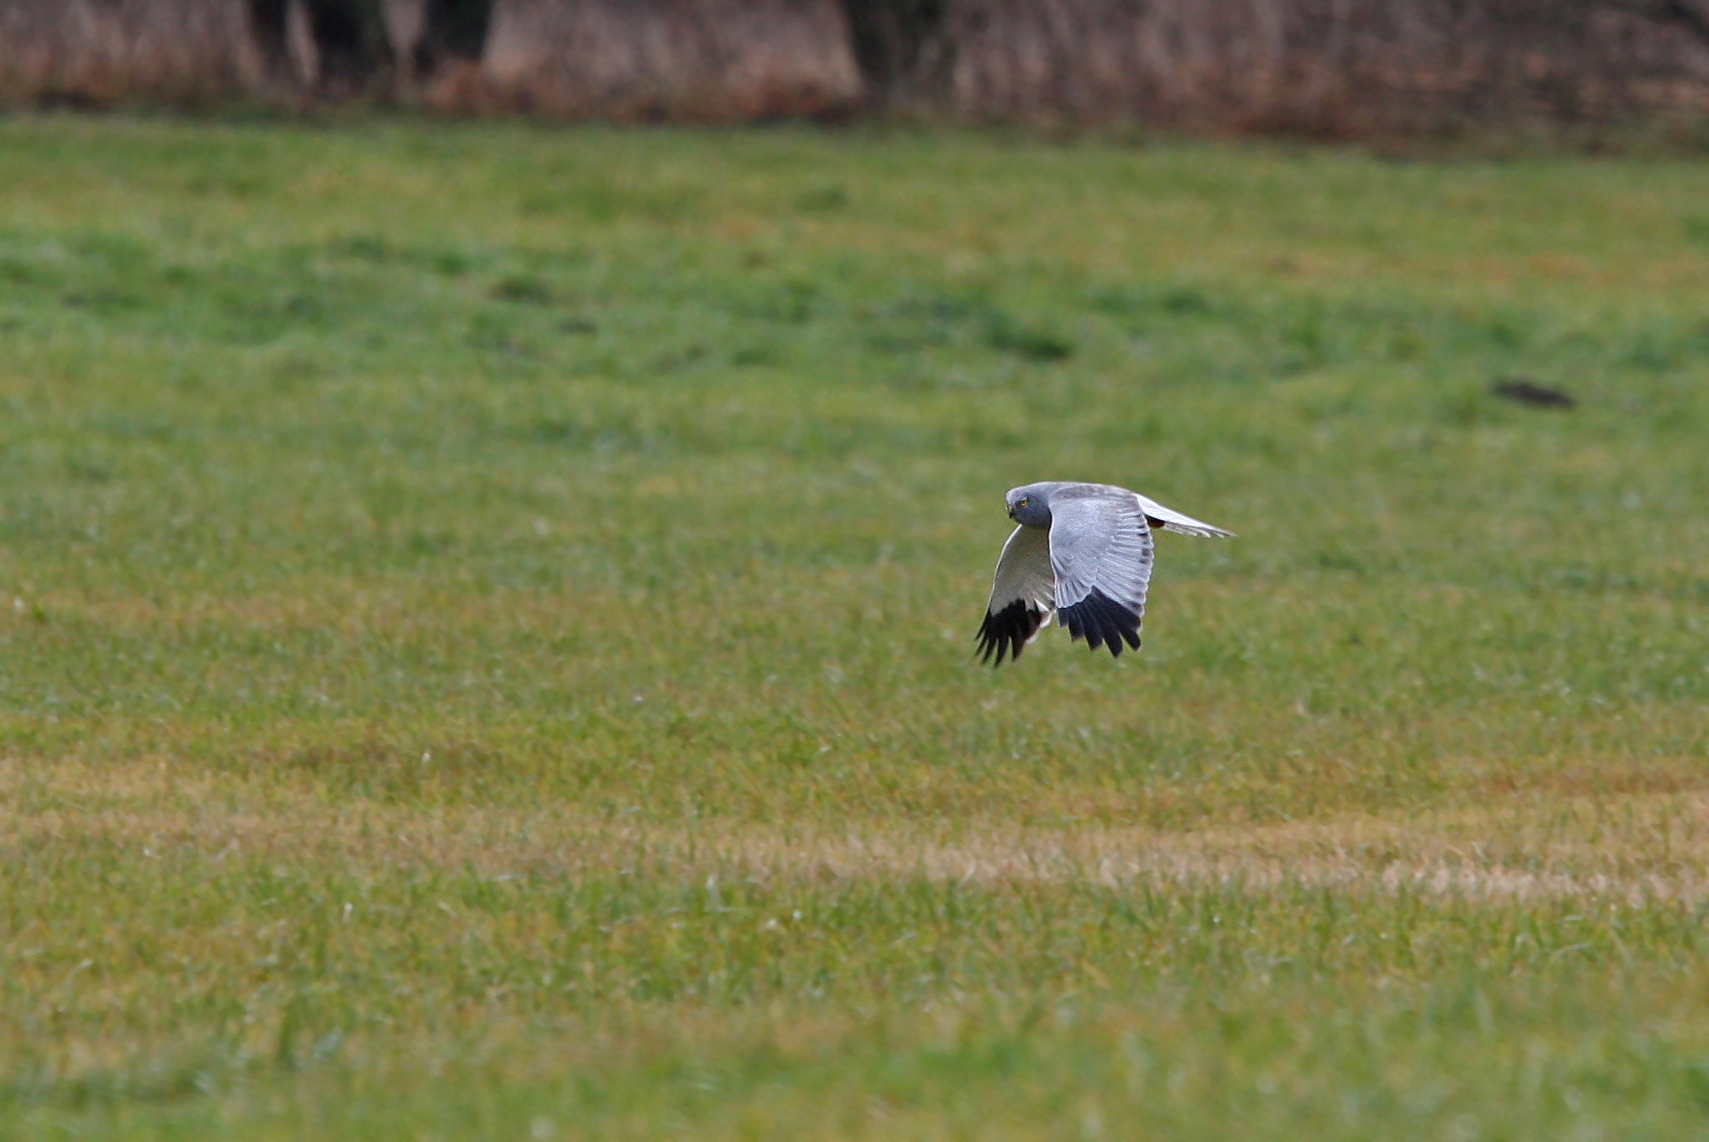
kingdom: Animalia
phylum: Chordata
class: Aves
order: Accipitriformes
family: Accipitridae
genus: Circus
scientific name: Circus cyaneus
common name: Hen harrier
